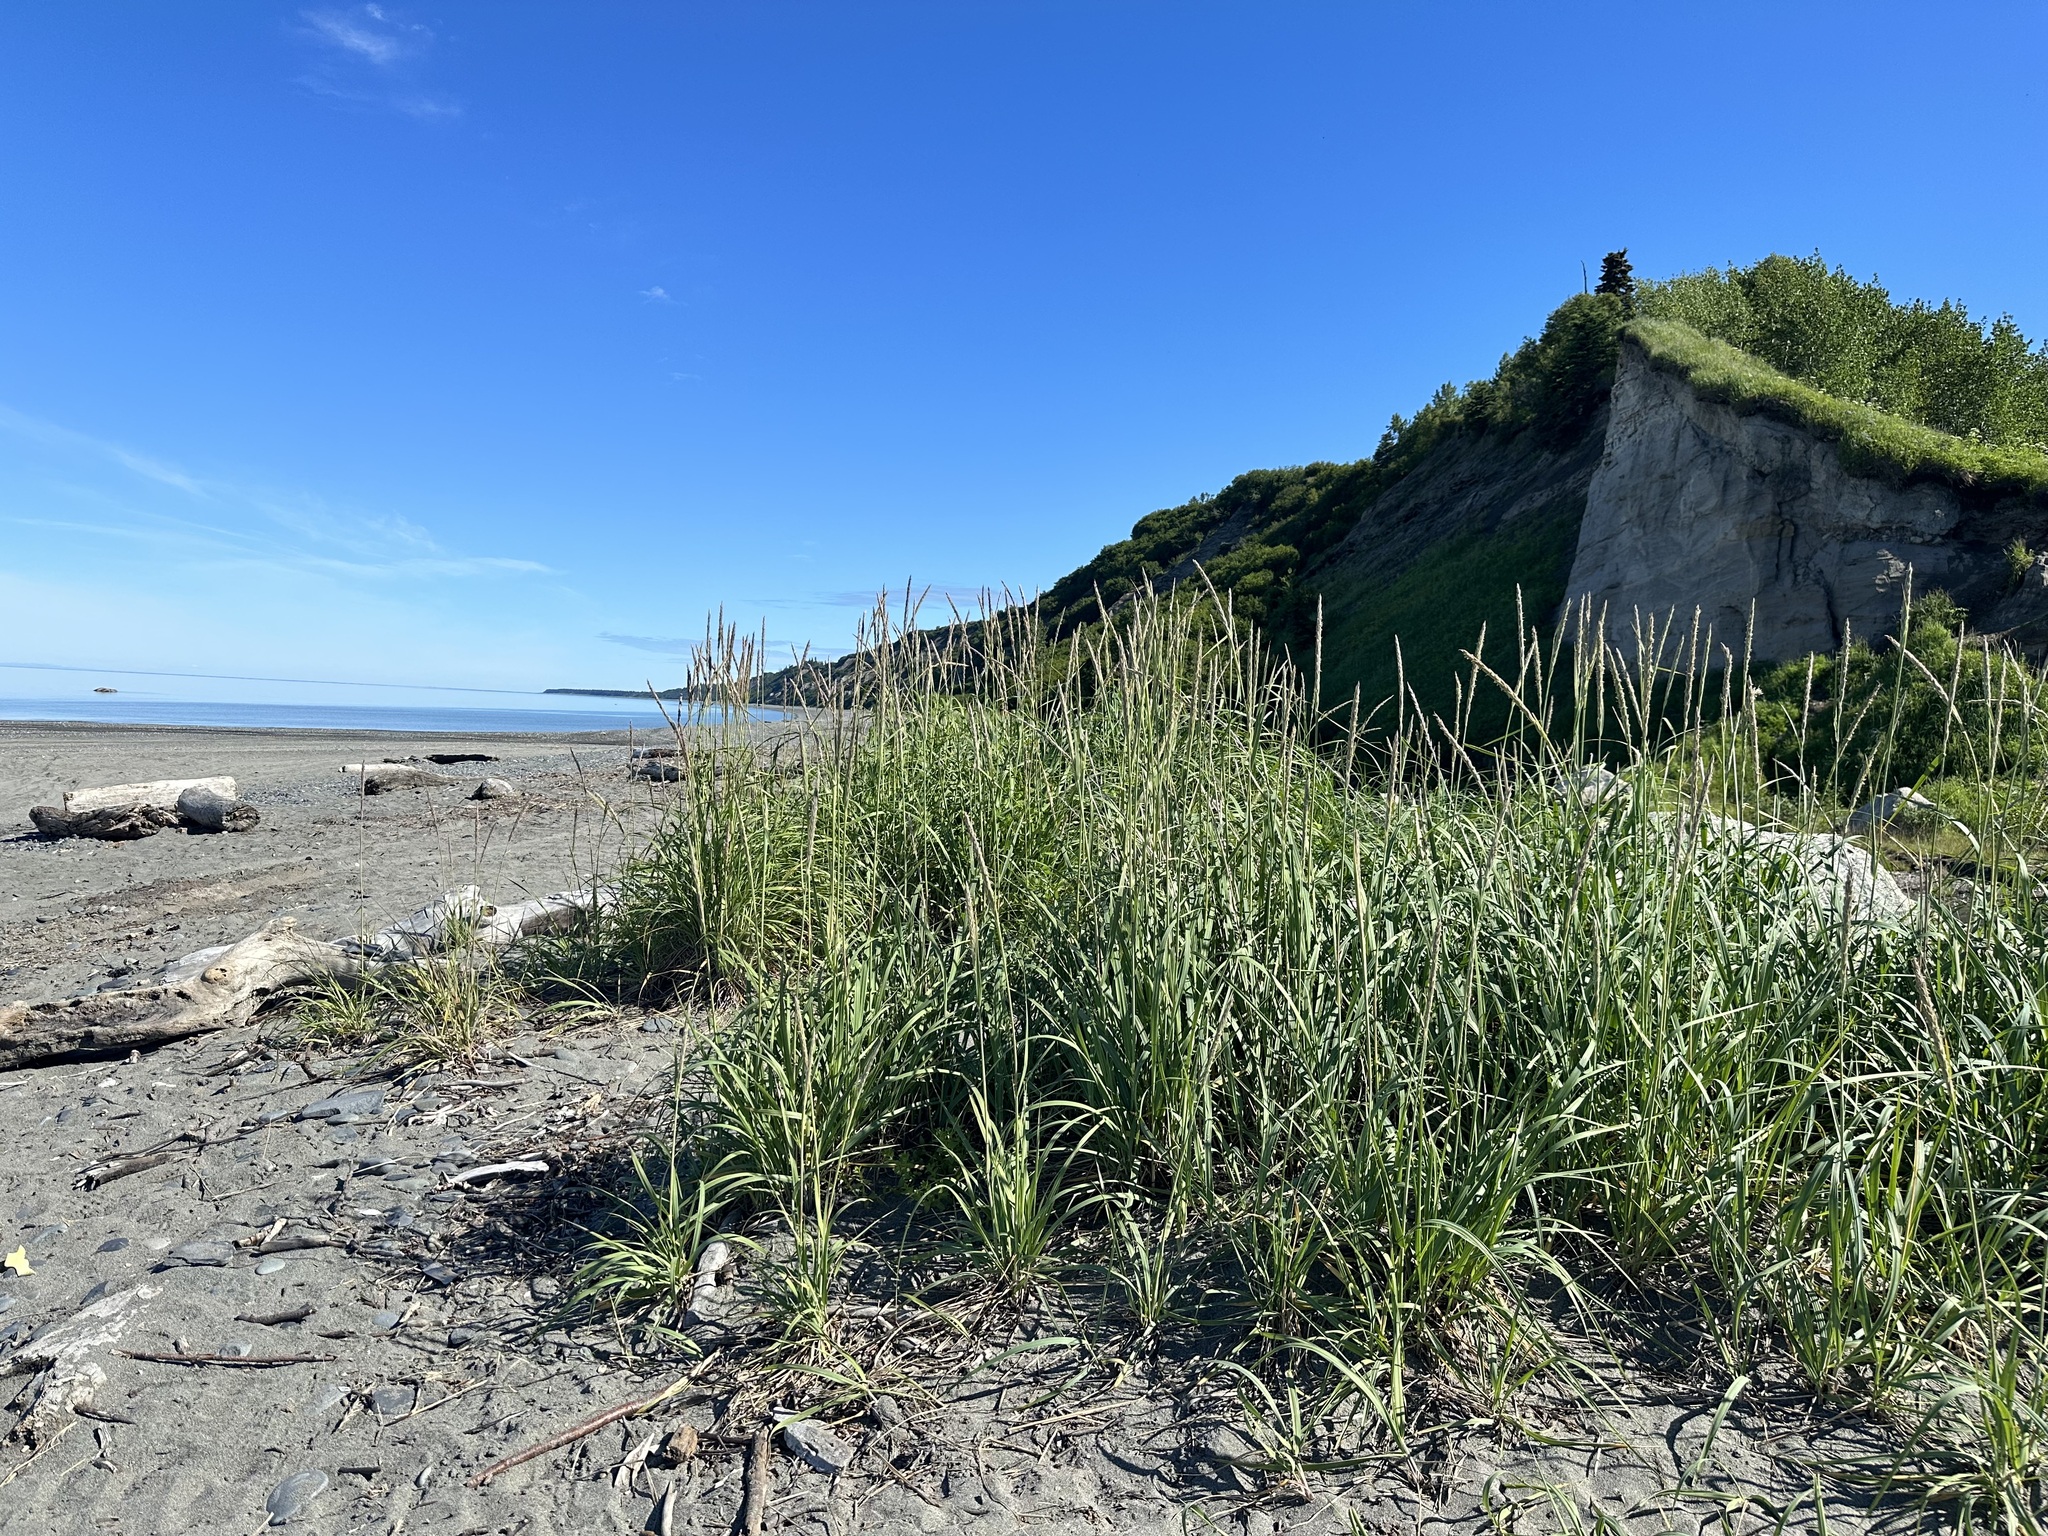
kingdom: Plantae
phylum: Tracheophyta
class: Liliopsida
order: Poales
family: Poaceae
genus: Leymus
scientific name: Leymus mollis
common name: American dune grass
